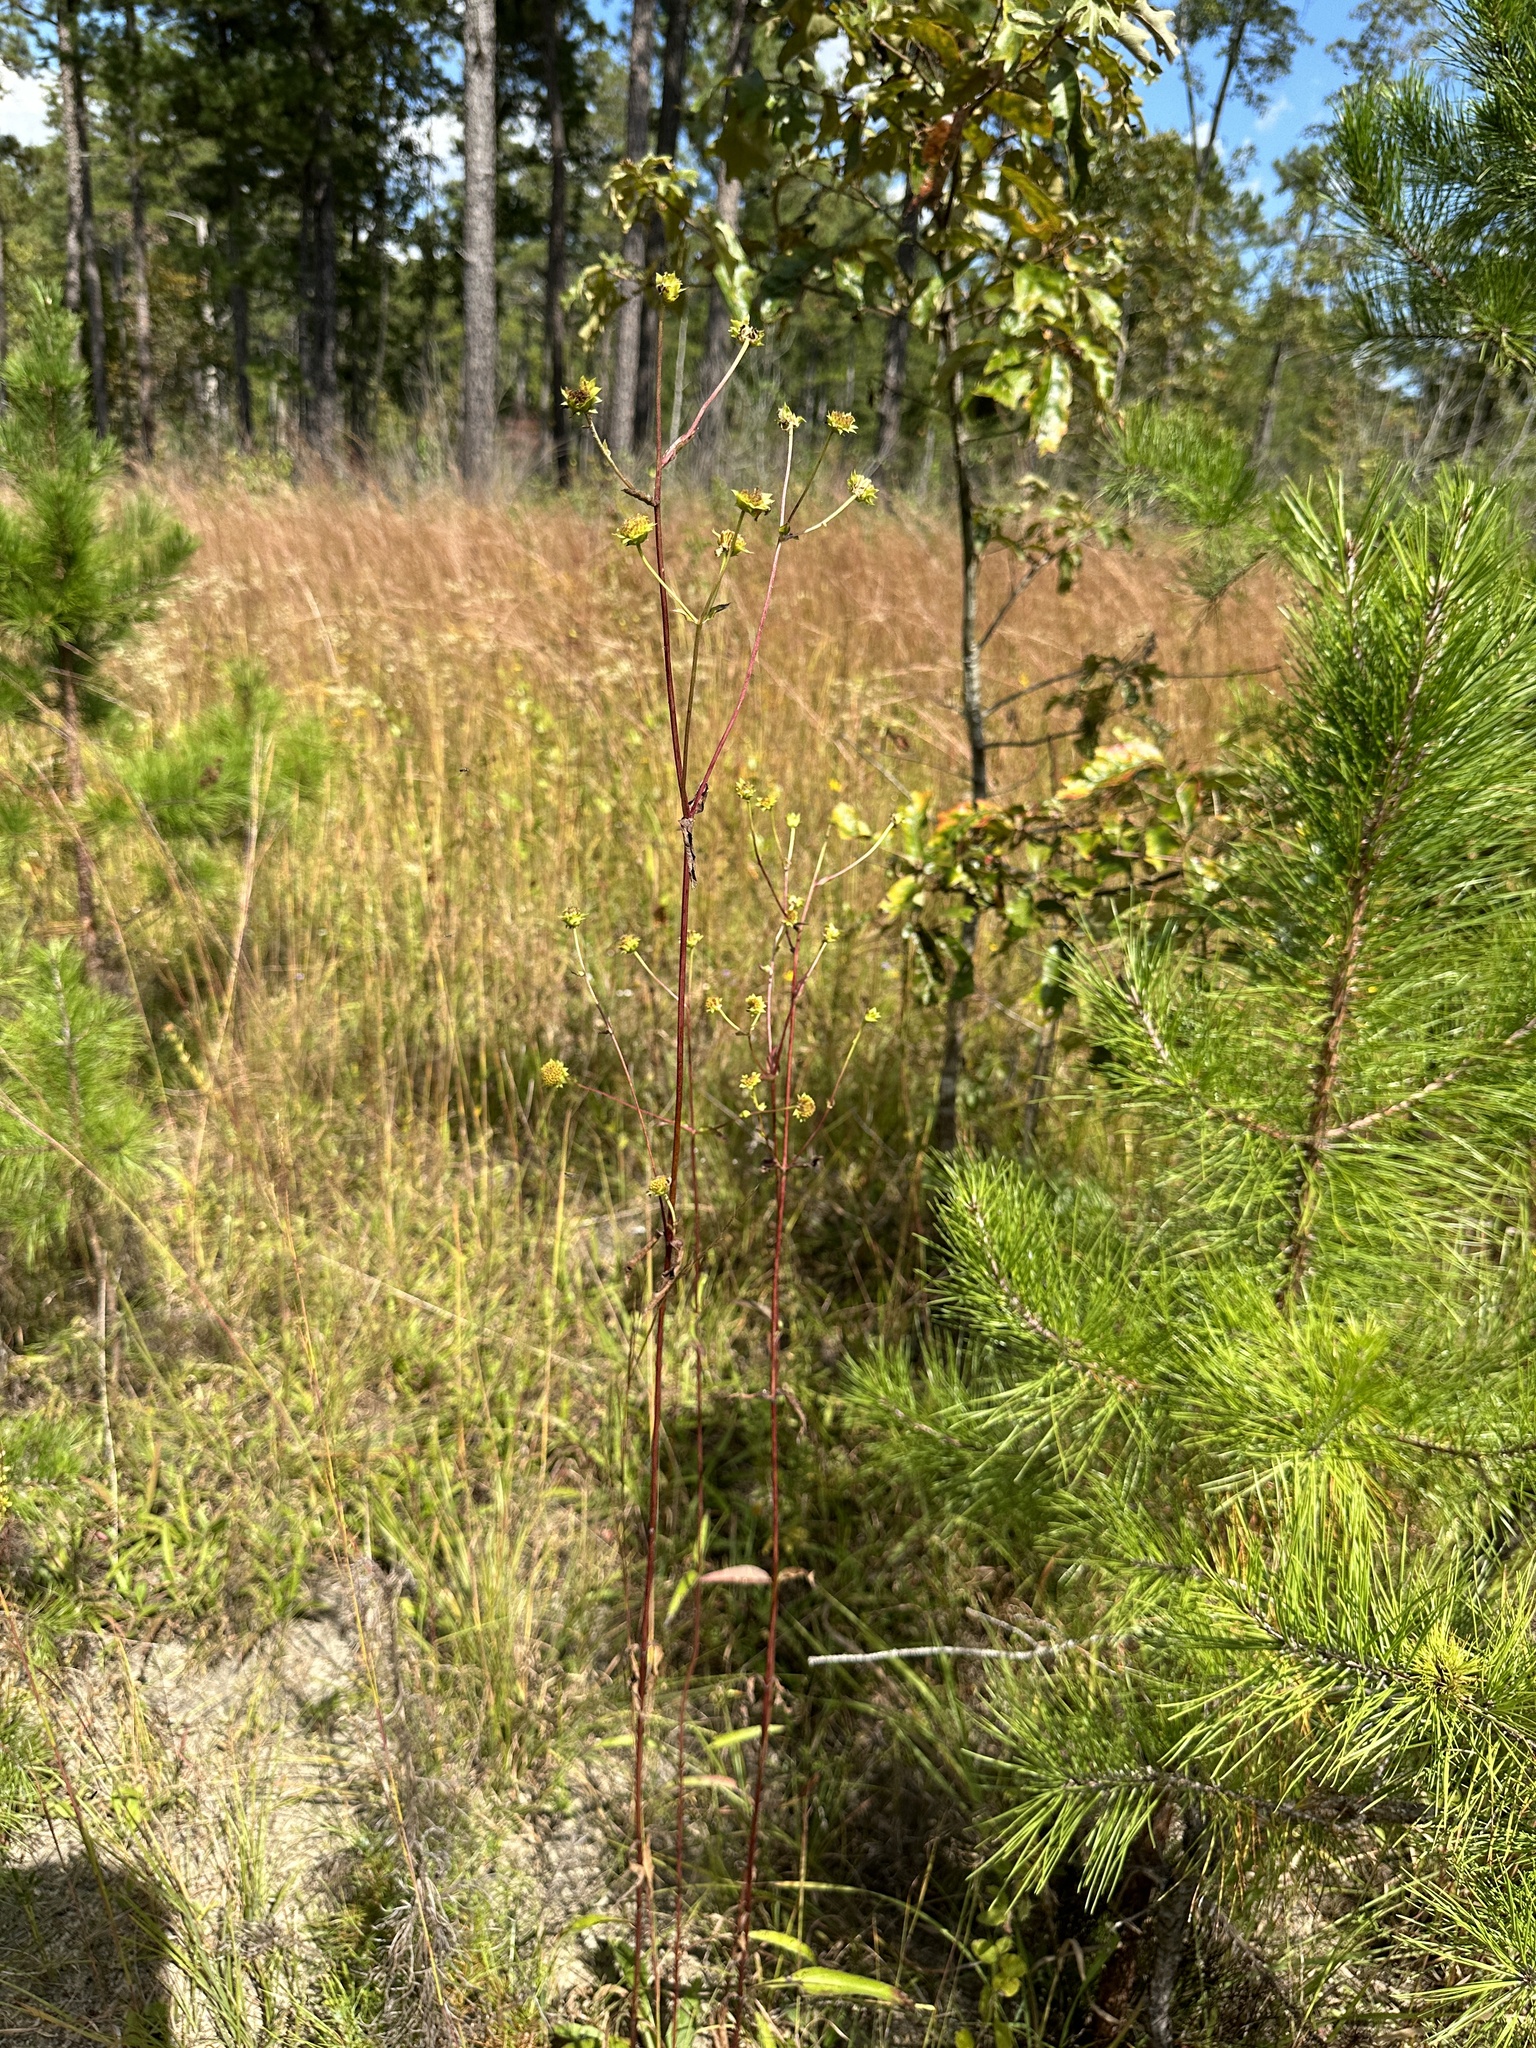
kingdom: Plantae
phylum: Tracheophyta
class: Magnoliopsida
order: Asterales
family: Asteraceae
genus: Helianthus
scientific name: Helianthus atrorubens
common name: Dark-eyed sunflower
